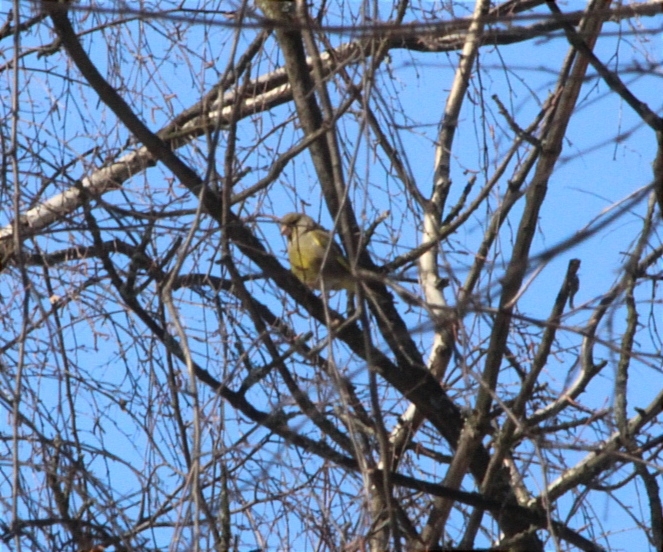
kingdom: Plantae
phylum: Tracheophyta
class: Liliopsida
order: Poales
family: Poaceae
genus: Chloris
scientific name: Chloris chloris
